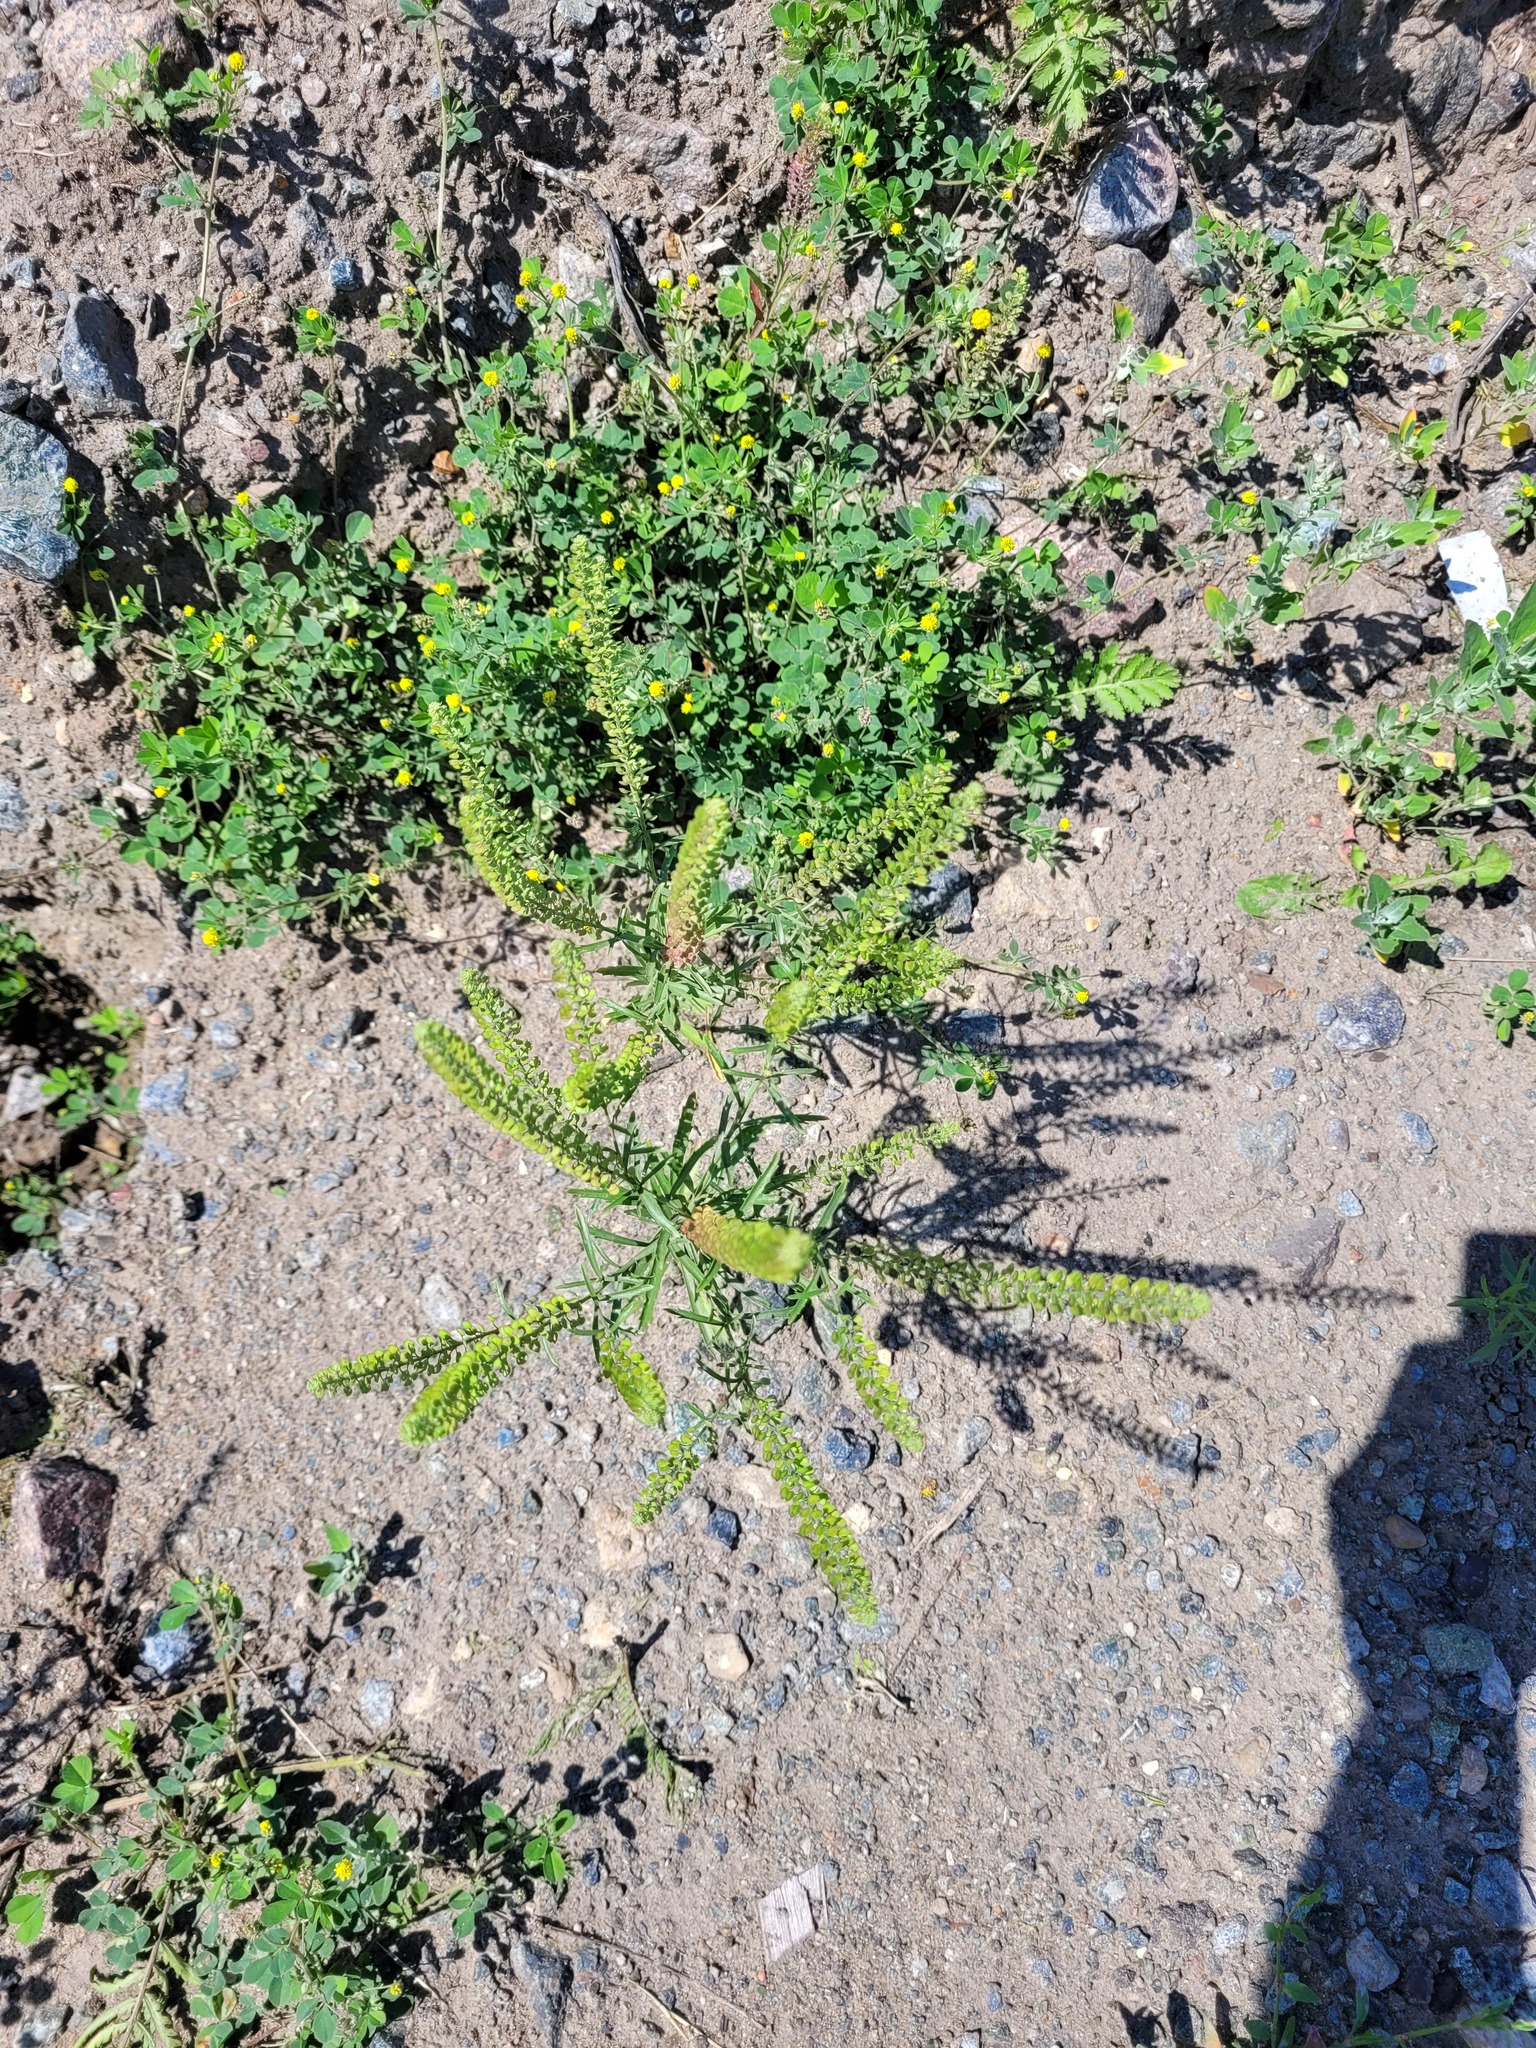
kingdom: Plantae
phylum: Tracheophyta
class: Magnoliopsida
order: Brassicales
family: Brassicaceae
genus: Lepidium
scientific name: Lepidium densiflorum
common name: Miner's pepperwort
